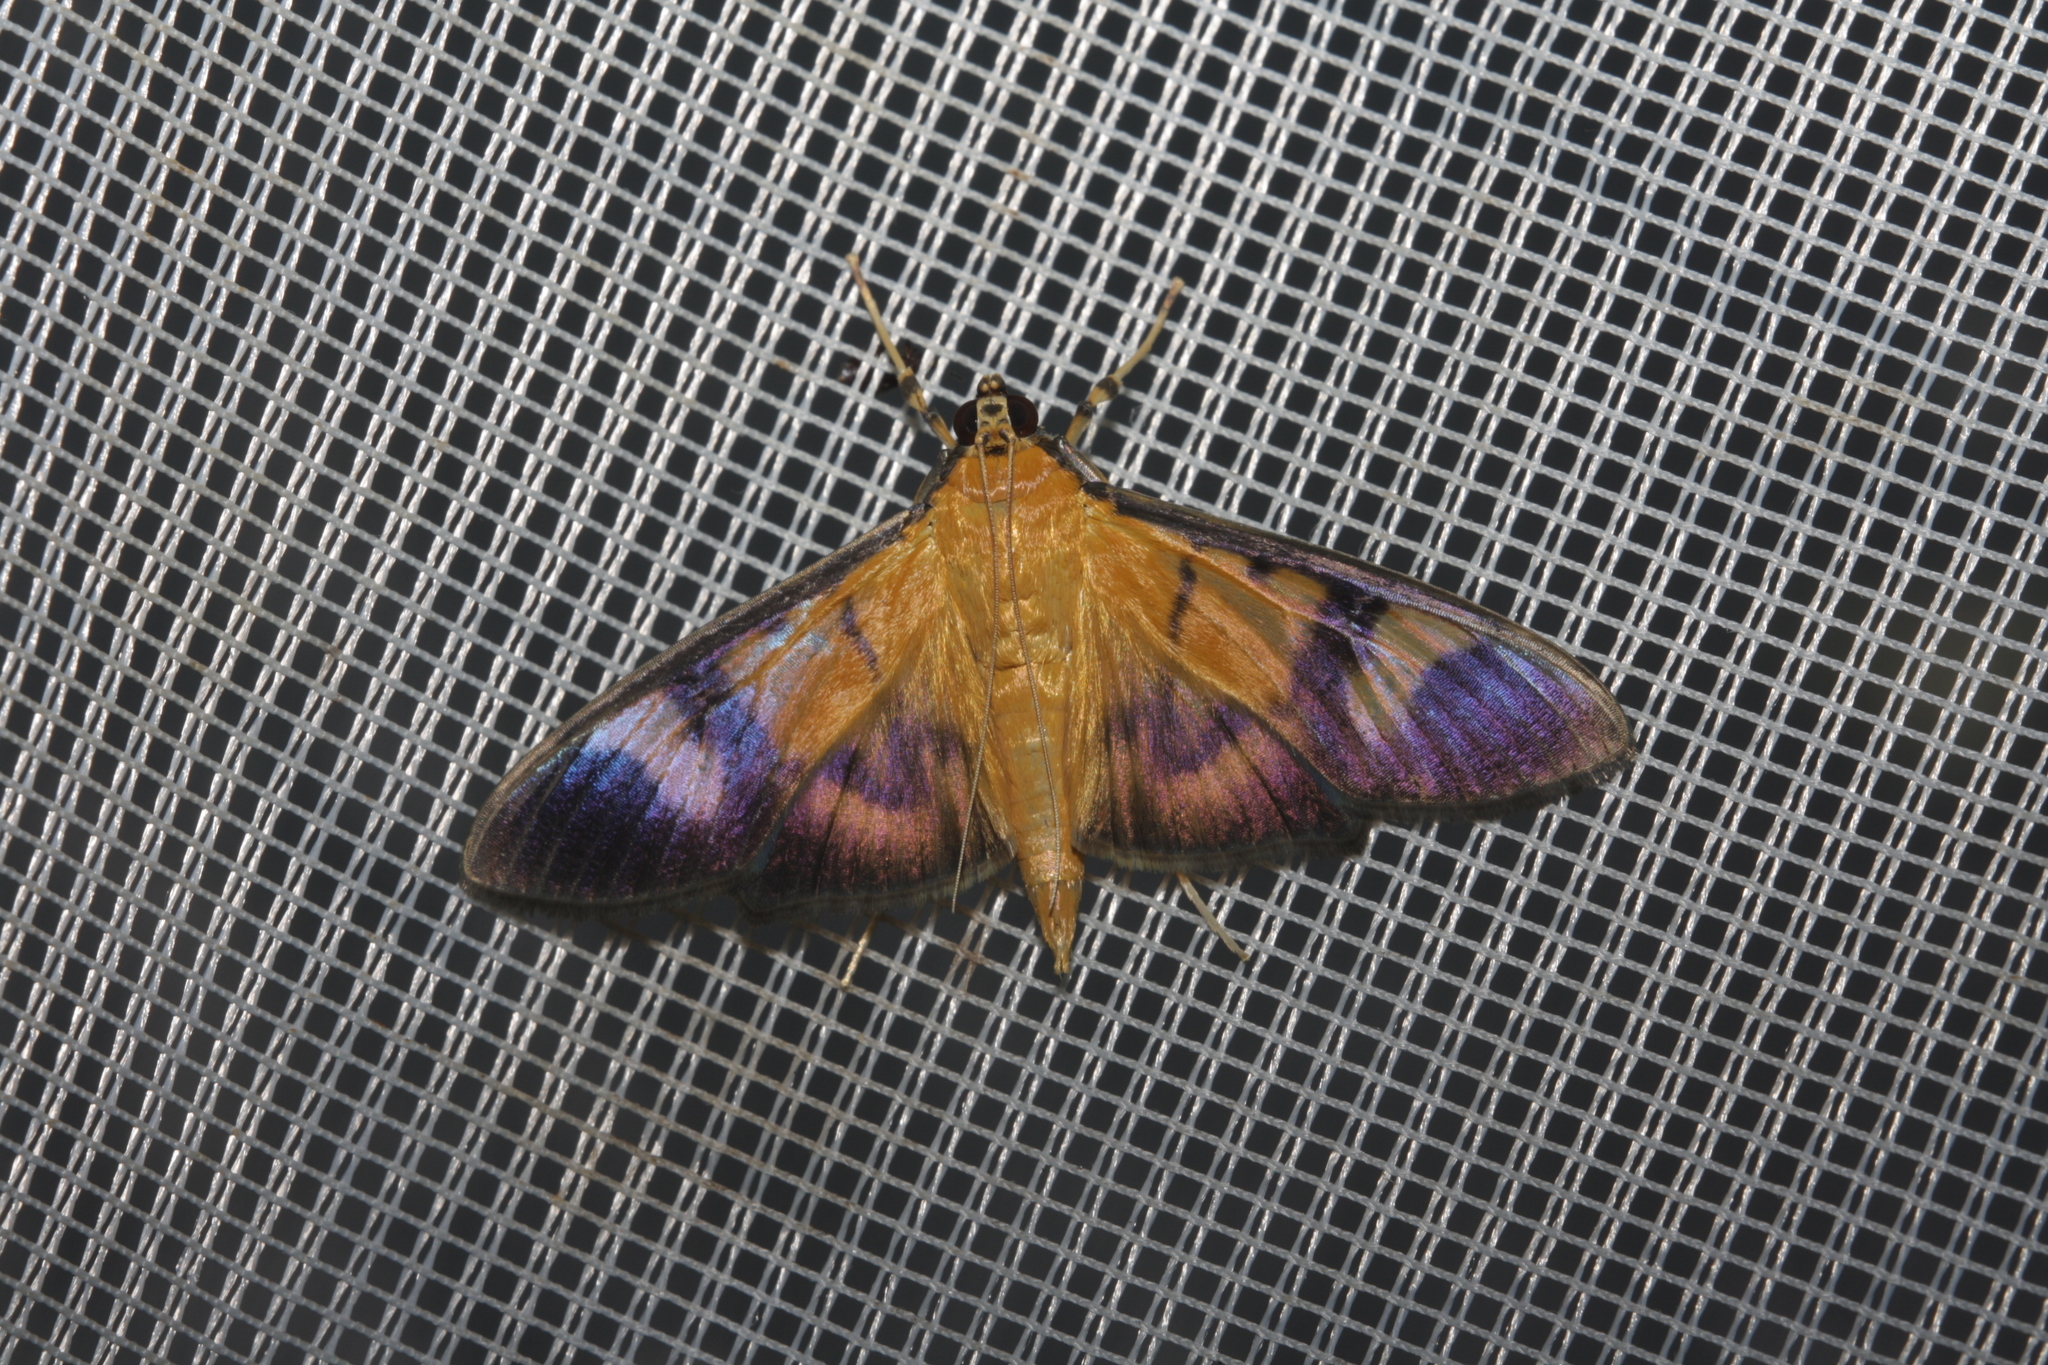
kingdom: Animalia
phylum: Arthropoda
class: Insecta
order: Lepidoptera
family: Crambidae
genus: Phostria
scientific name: Phostria dohrni
